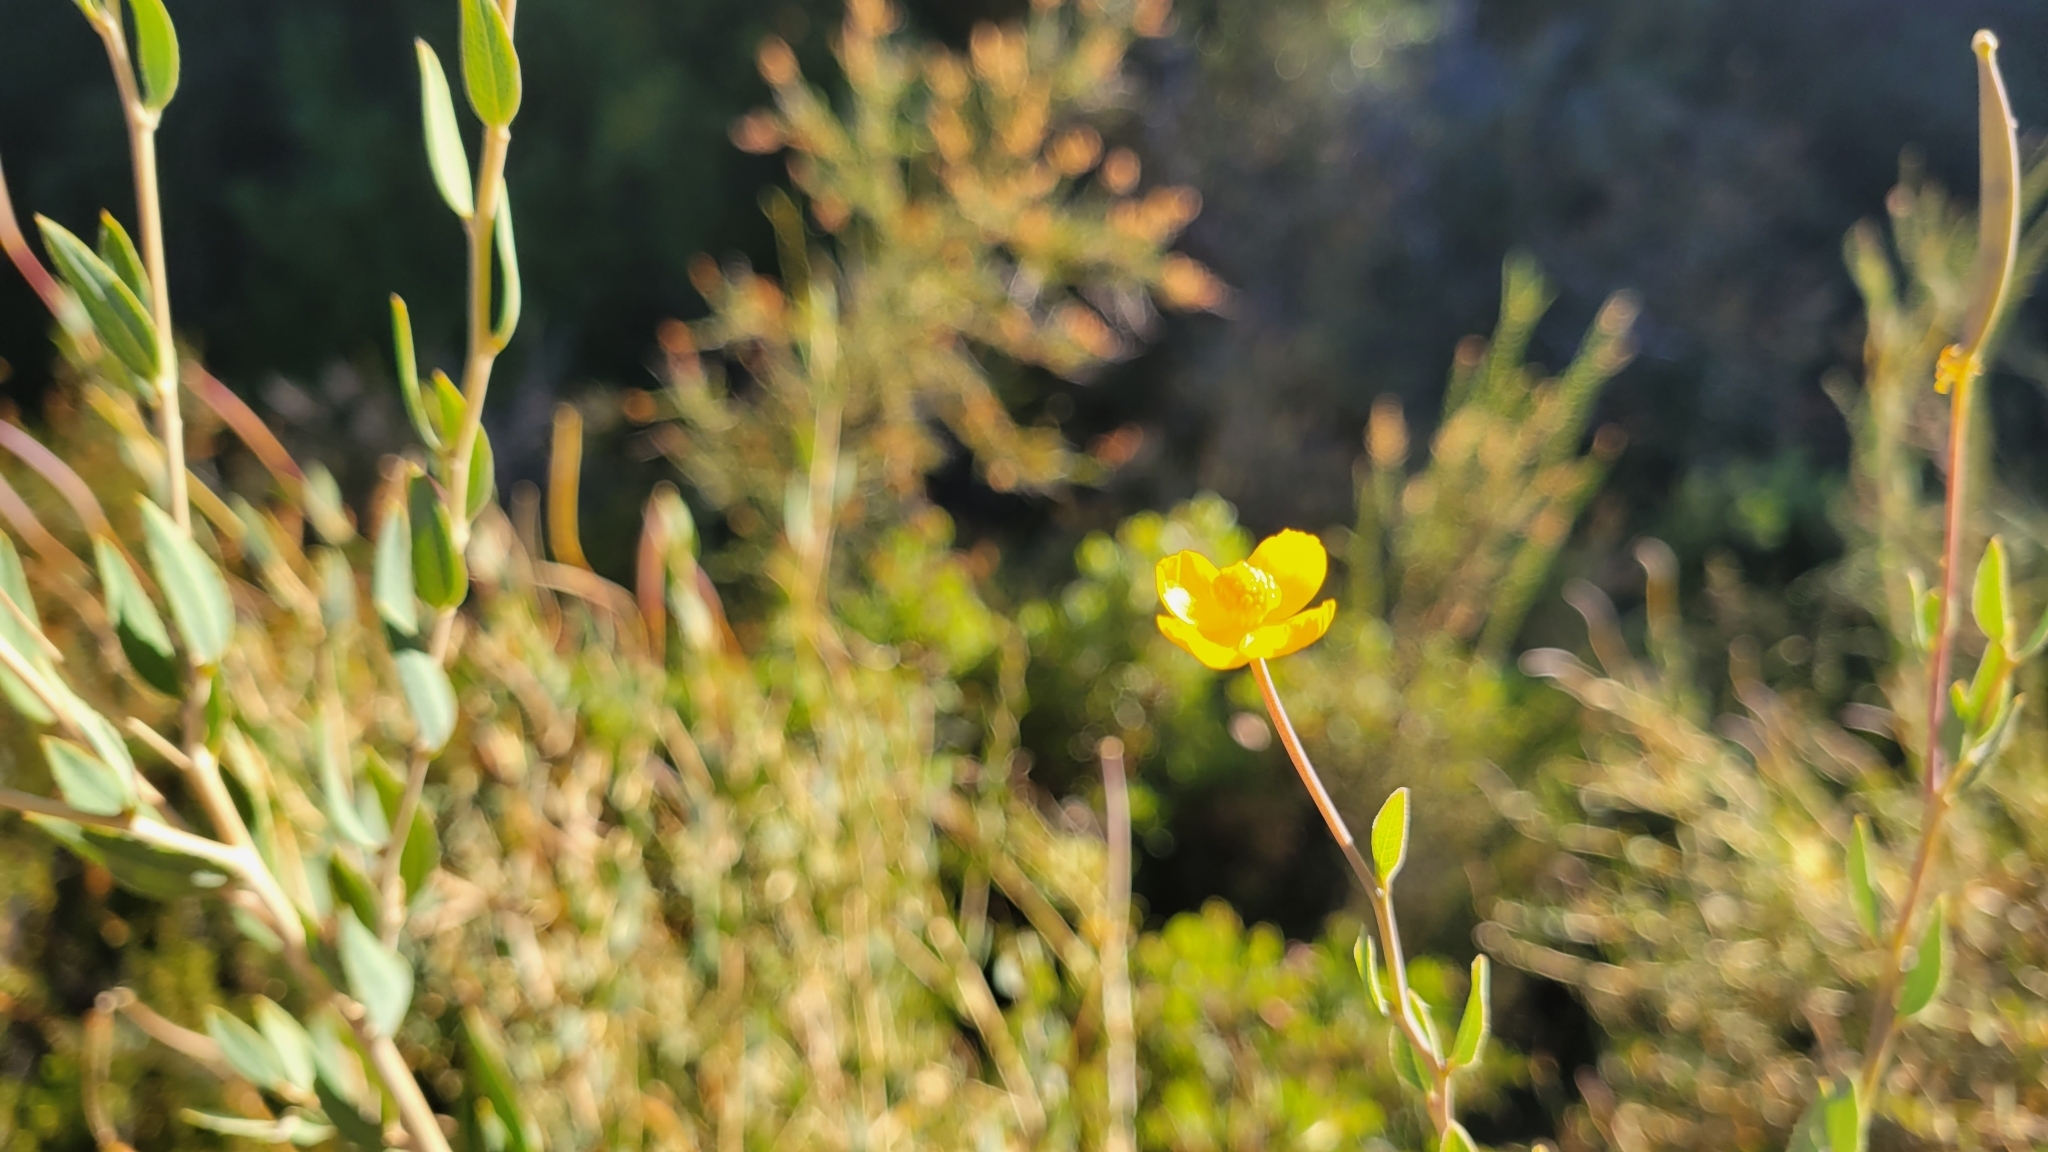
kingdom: Plantae
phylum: Tracheophyta
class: Magnoliopsida
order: Ranunculales
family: Papaveraceae
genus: Dendromecon
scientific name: Dendromecon rigida
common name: Tree poppy
